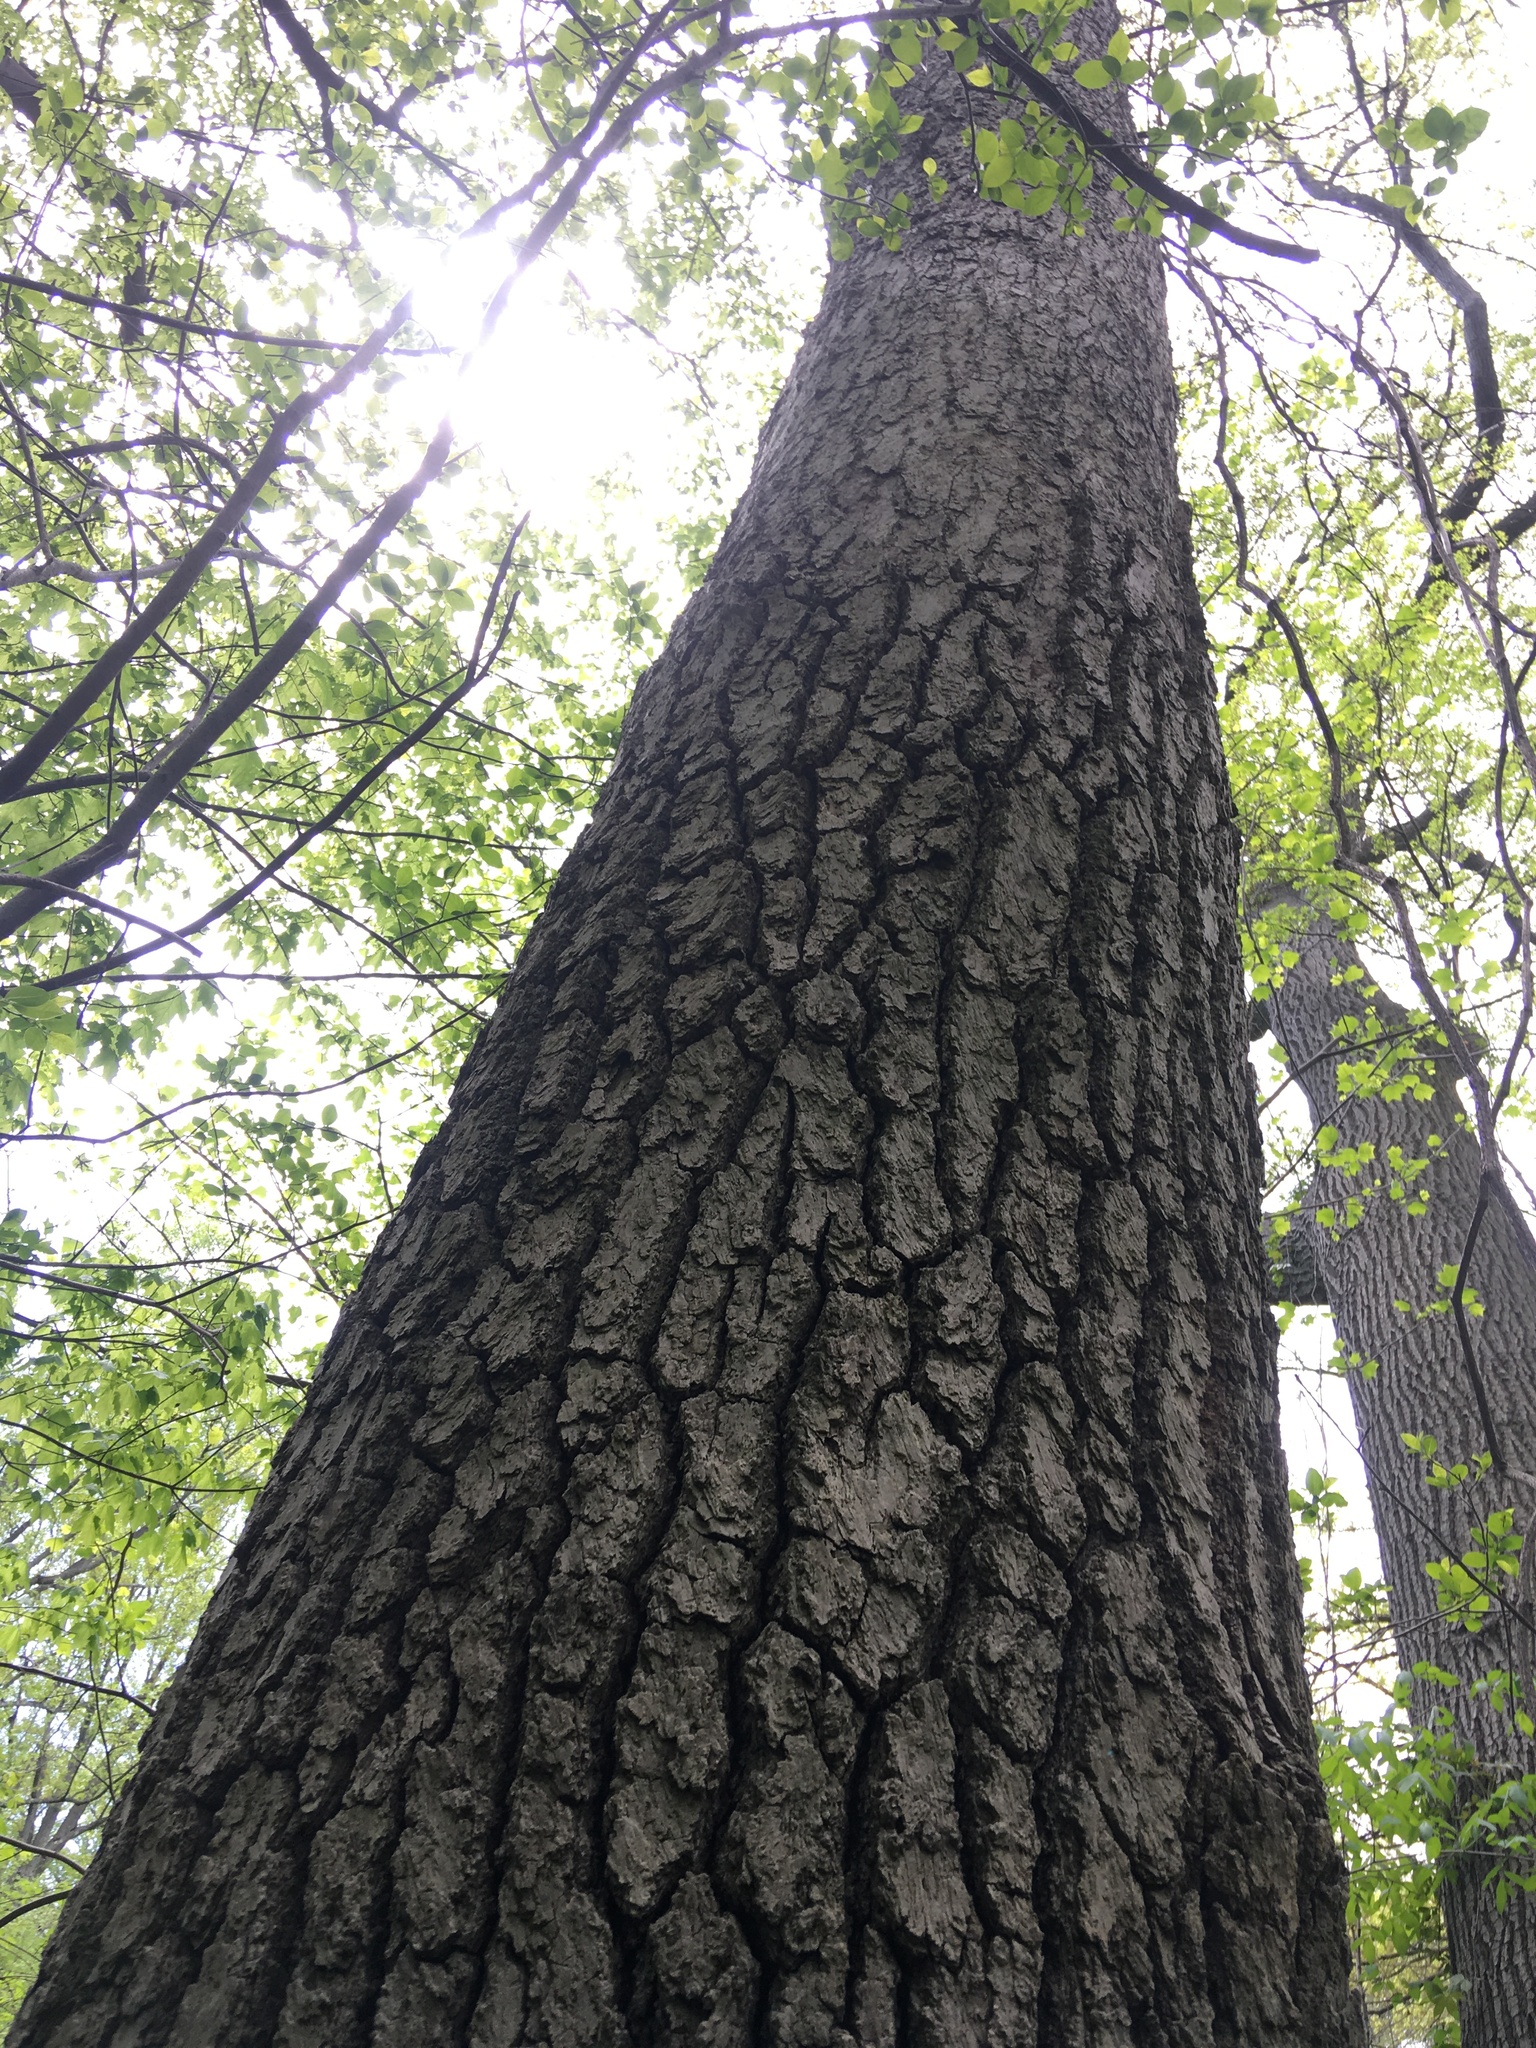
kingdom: Plantae
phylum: Tracheophyta
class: Magnoliopsida
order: Cornales
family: Nyssaceae
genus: Nyssa
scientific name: Nyssa sylvatica
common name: Black tupelo
